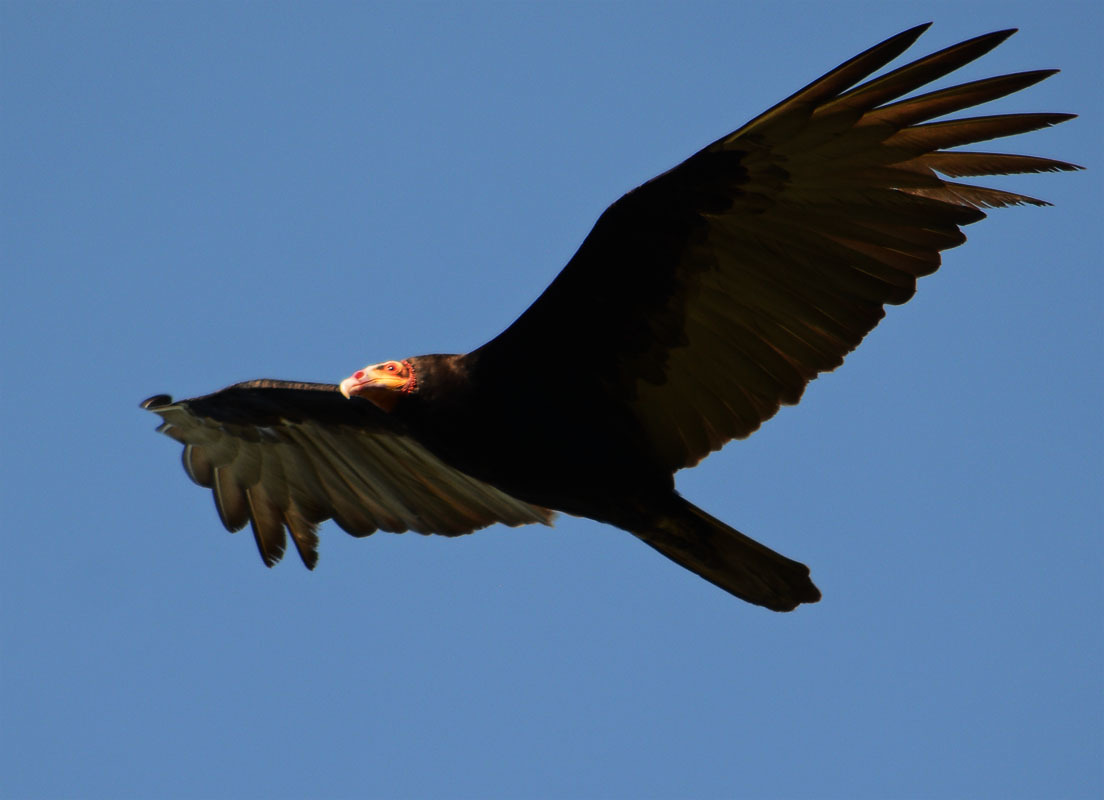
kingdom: Animalia
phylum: Chordata
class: Aves
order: Accipitriformes
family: Cathartidae
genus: Cathartes
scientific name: Cathartes aura
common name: Turkey vulture
